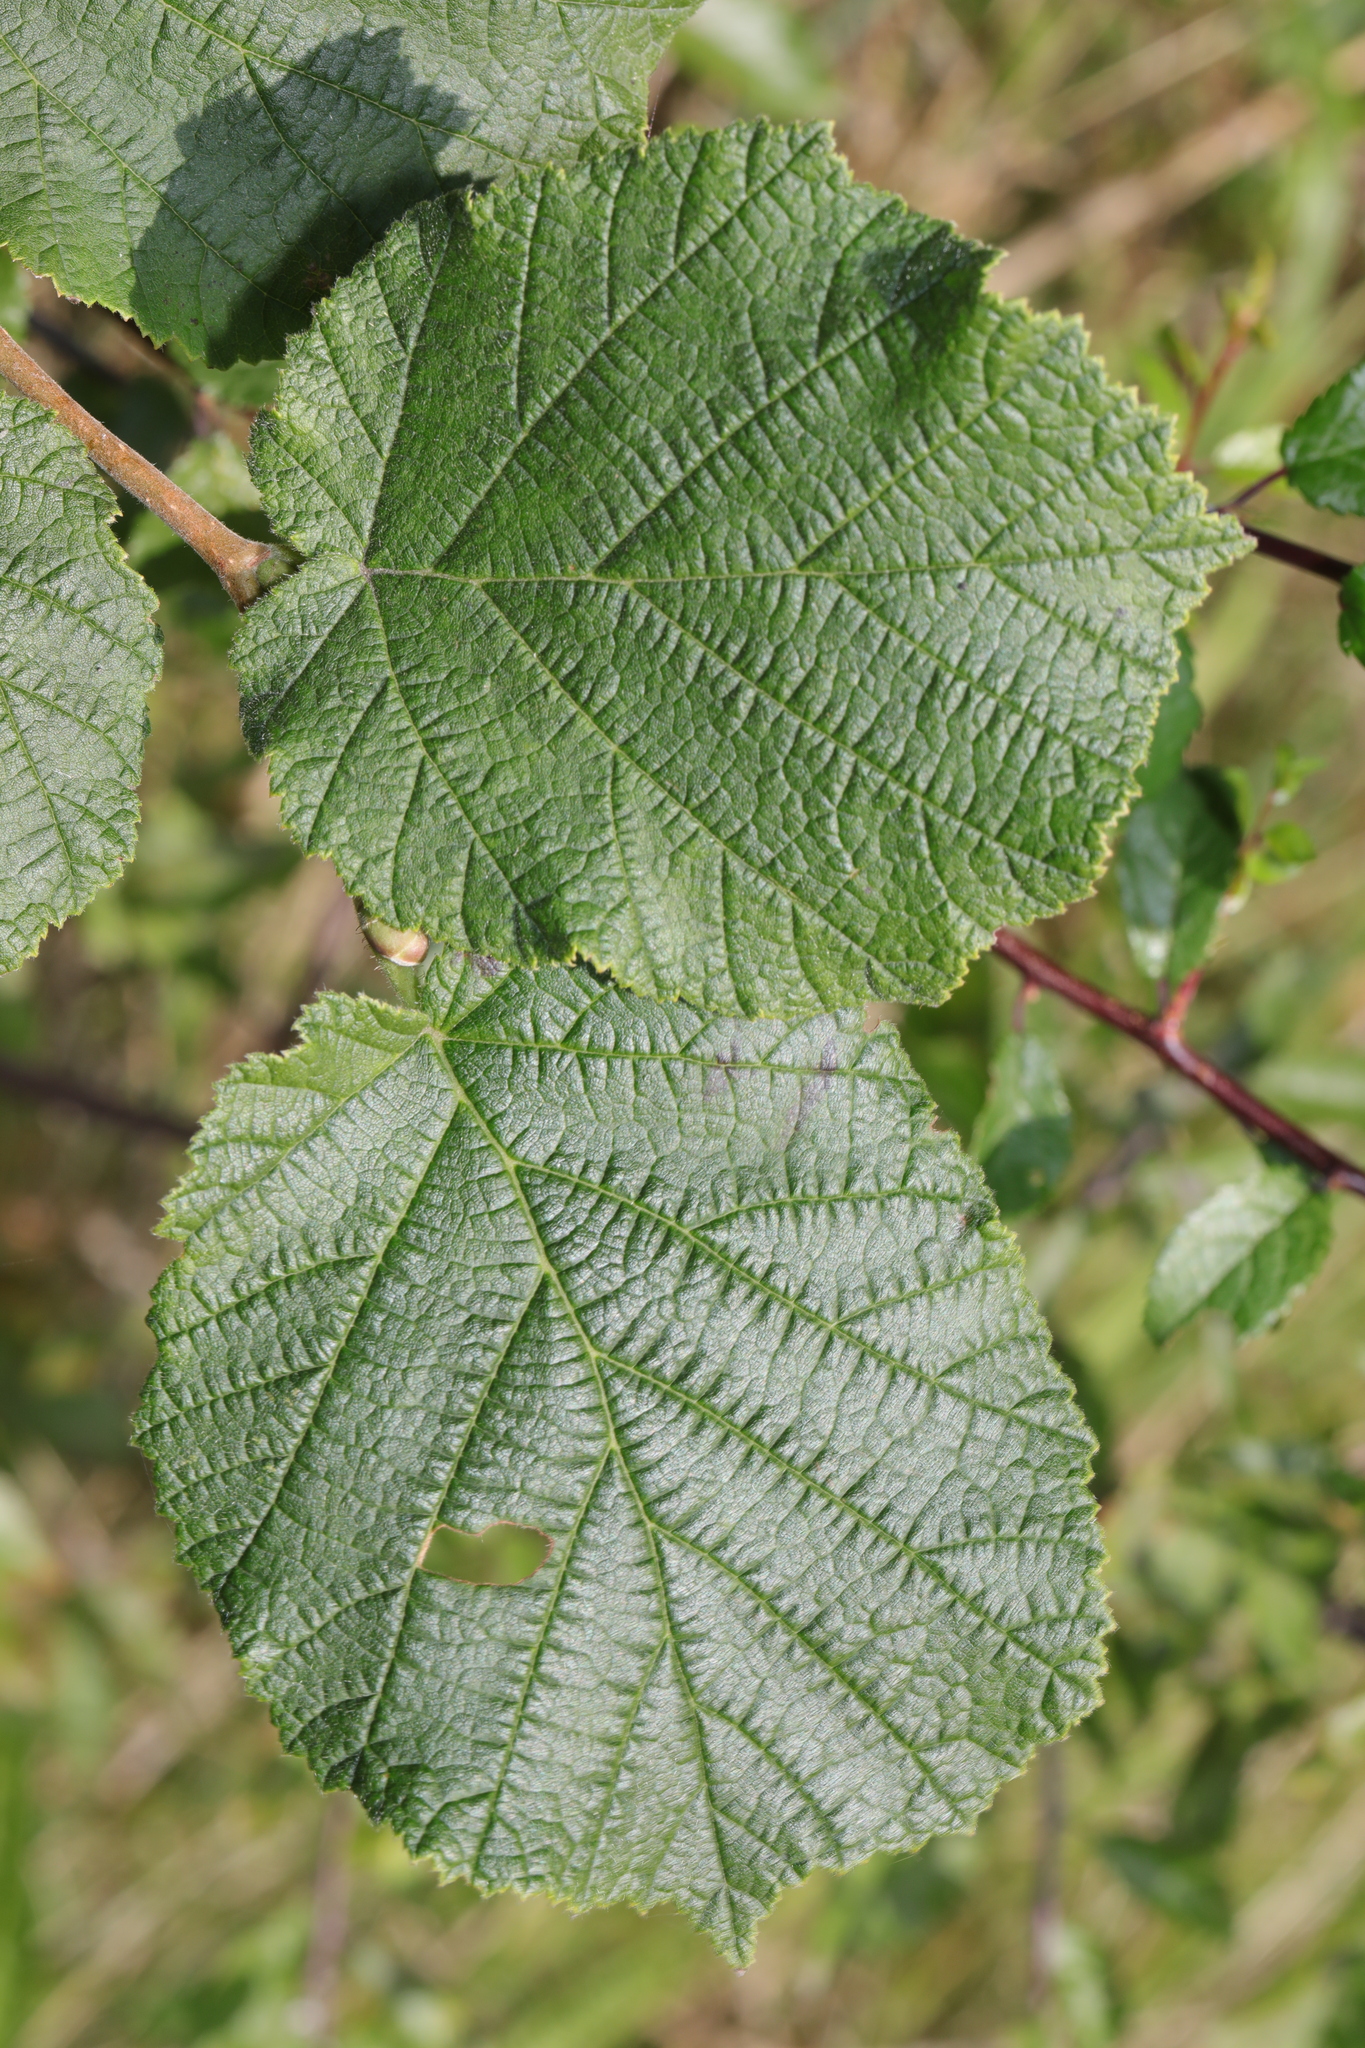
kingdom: Plantae
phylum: Tracheophyta
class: Magnoliopsida
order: Fagales
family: Betulaceae
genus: Corylus
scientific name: Corylus avellana
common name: European hazel
